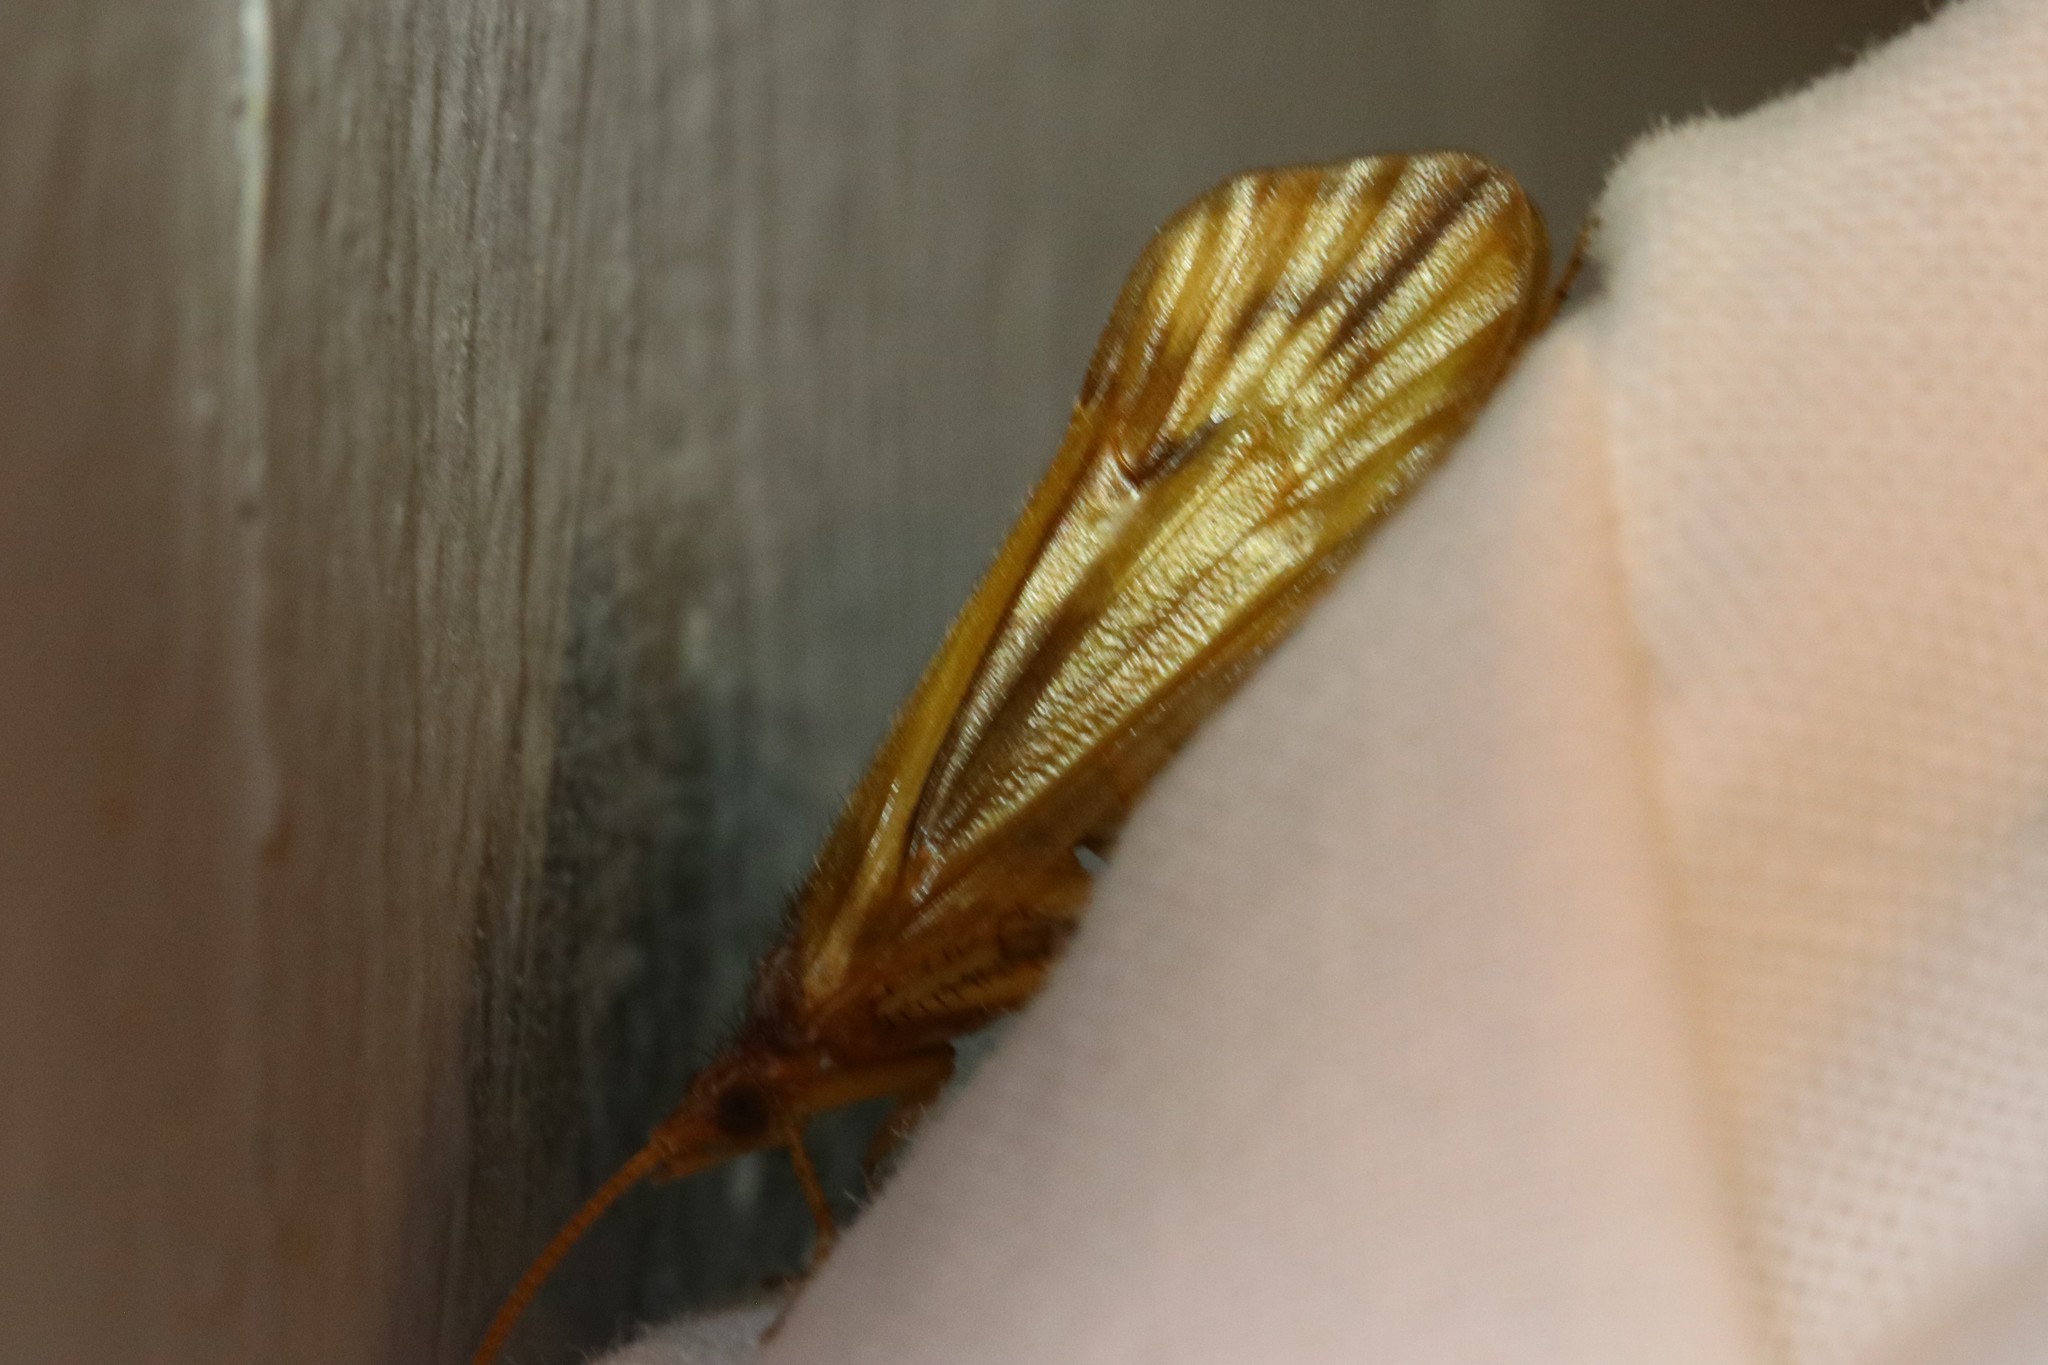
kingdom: Animalia
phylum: Arthropoda
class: Insecta
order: Trichoptera
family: Limnephilidae
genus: Platycentropus
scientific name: Platycentropus radiatus
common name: Chocolate-and-cream sedge
